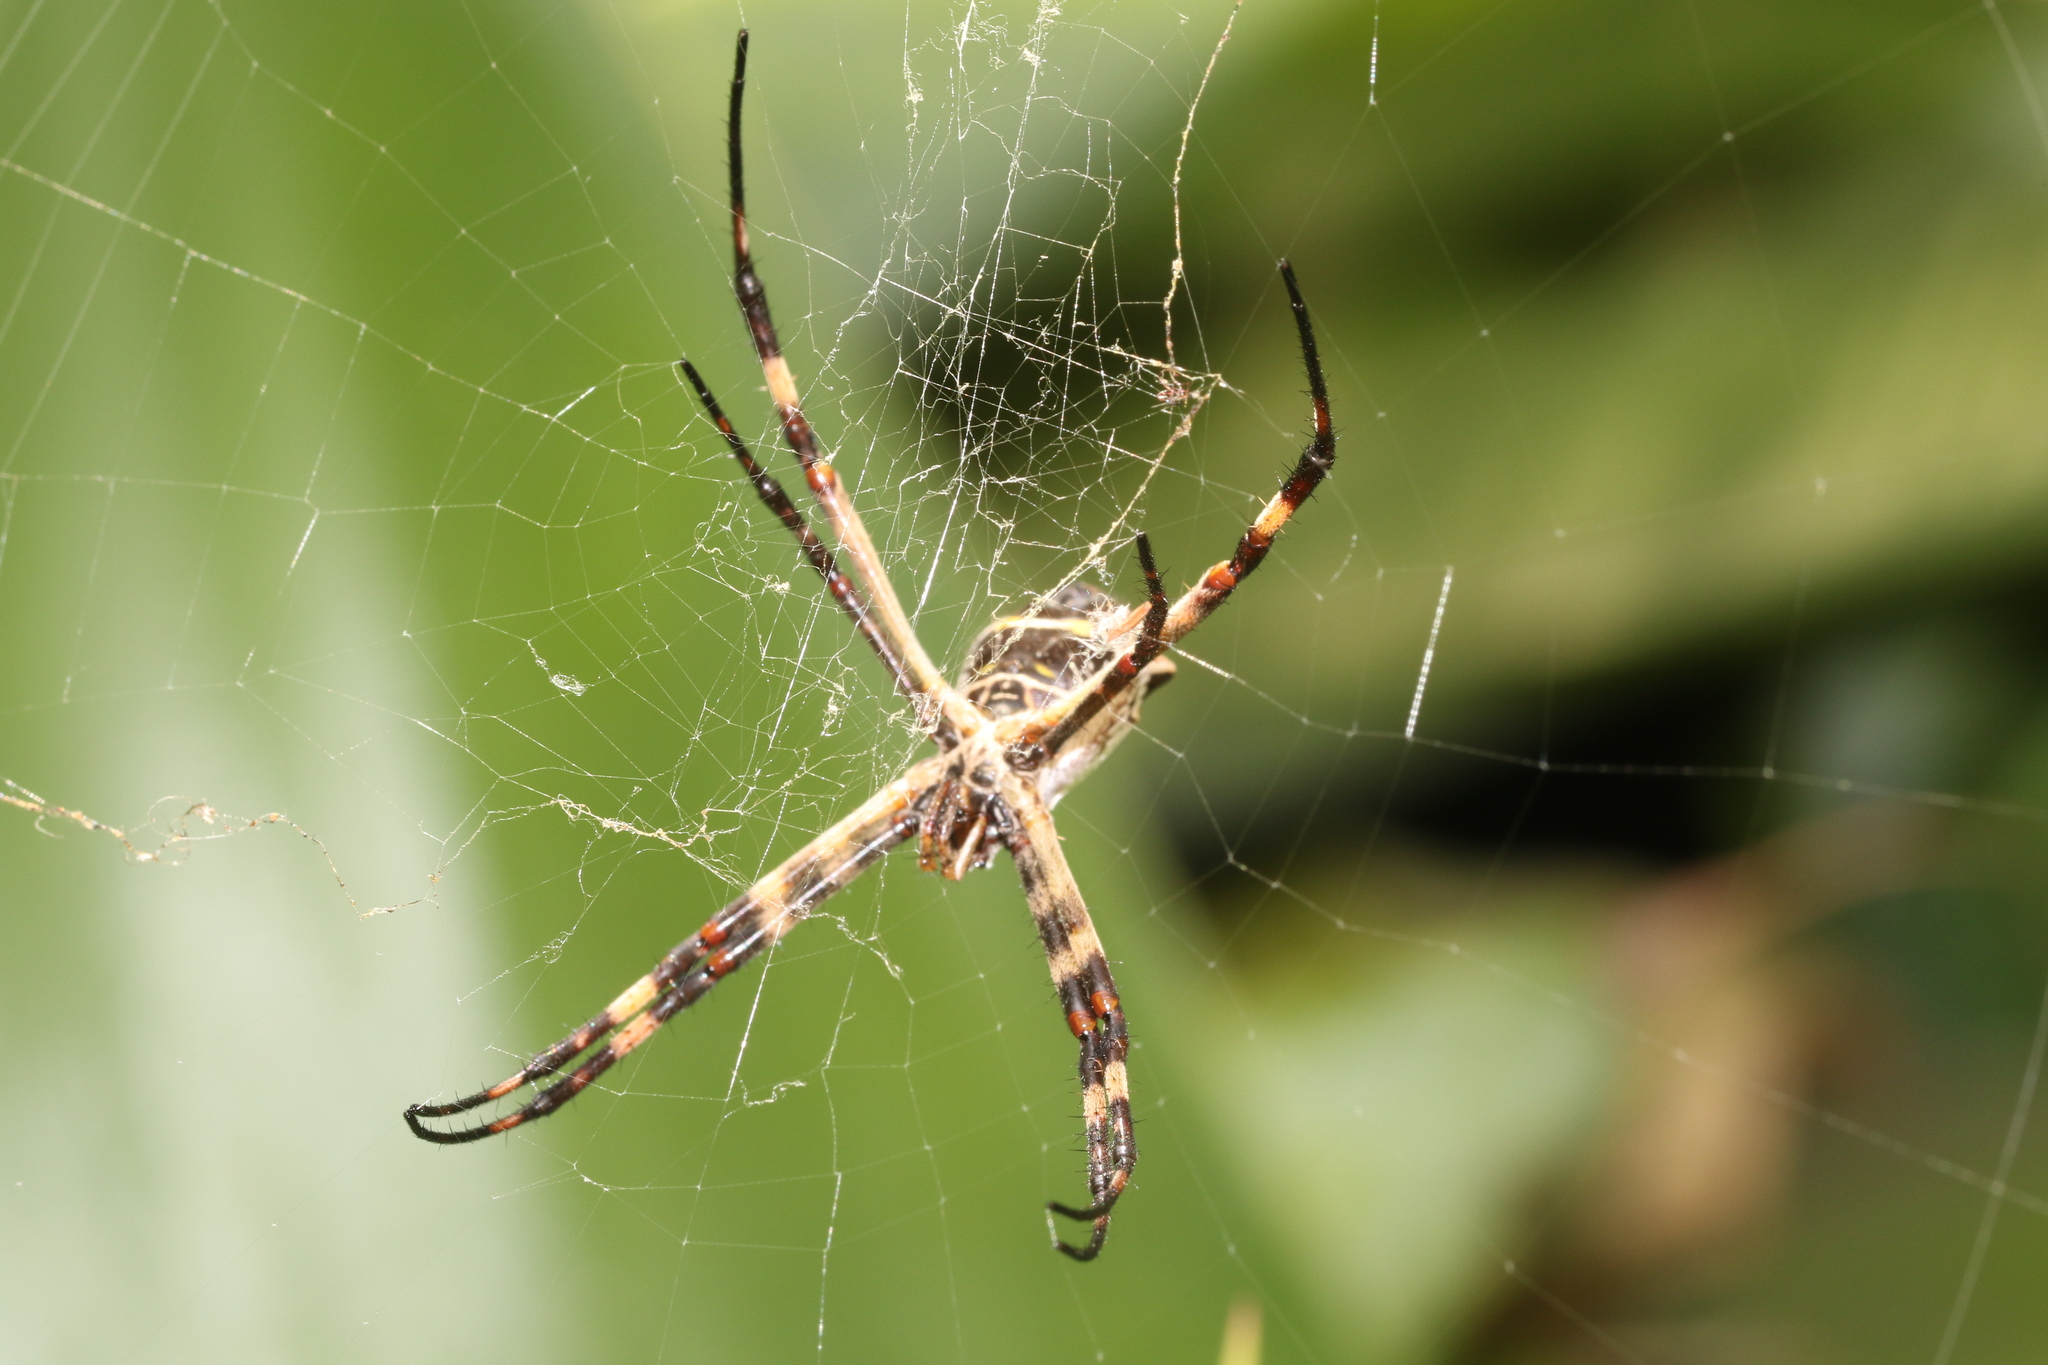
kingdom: Animalia
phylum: Arthropoda
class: Arachnida
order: Araneae
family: Araneidae
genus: Argiope
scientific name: Argiope argentata
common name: Orb weavers
